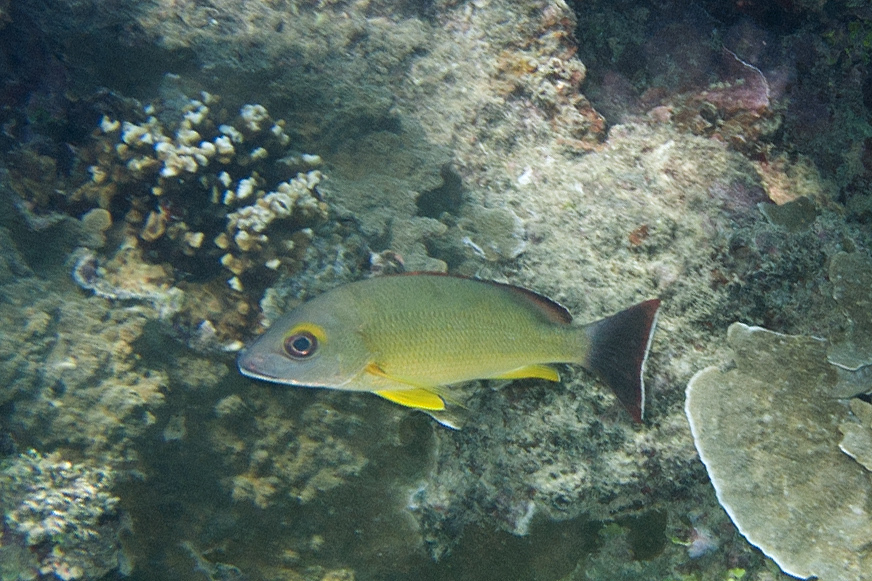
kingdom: Animalia
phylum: Chordata
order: Perciformes
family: Lutjanidae
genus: Lutjanus
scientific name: Lutjanus fulvus
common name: Blacktail snapper
